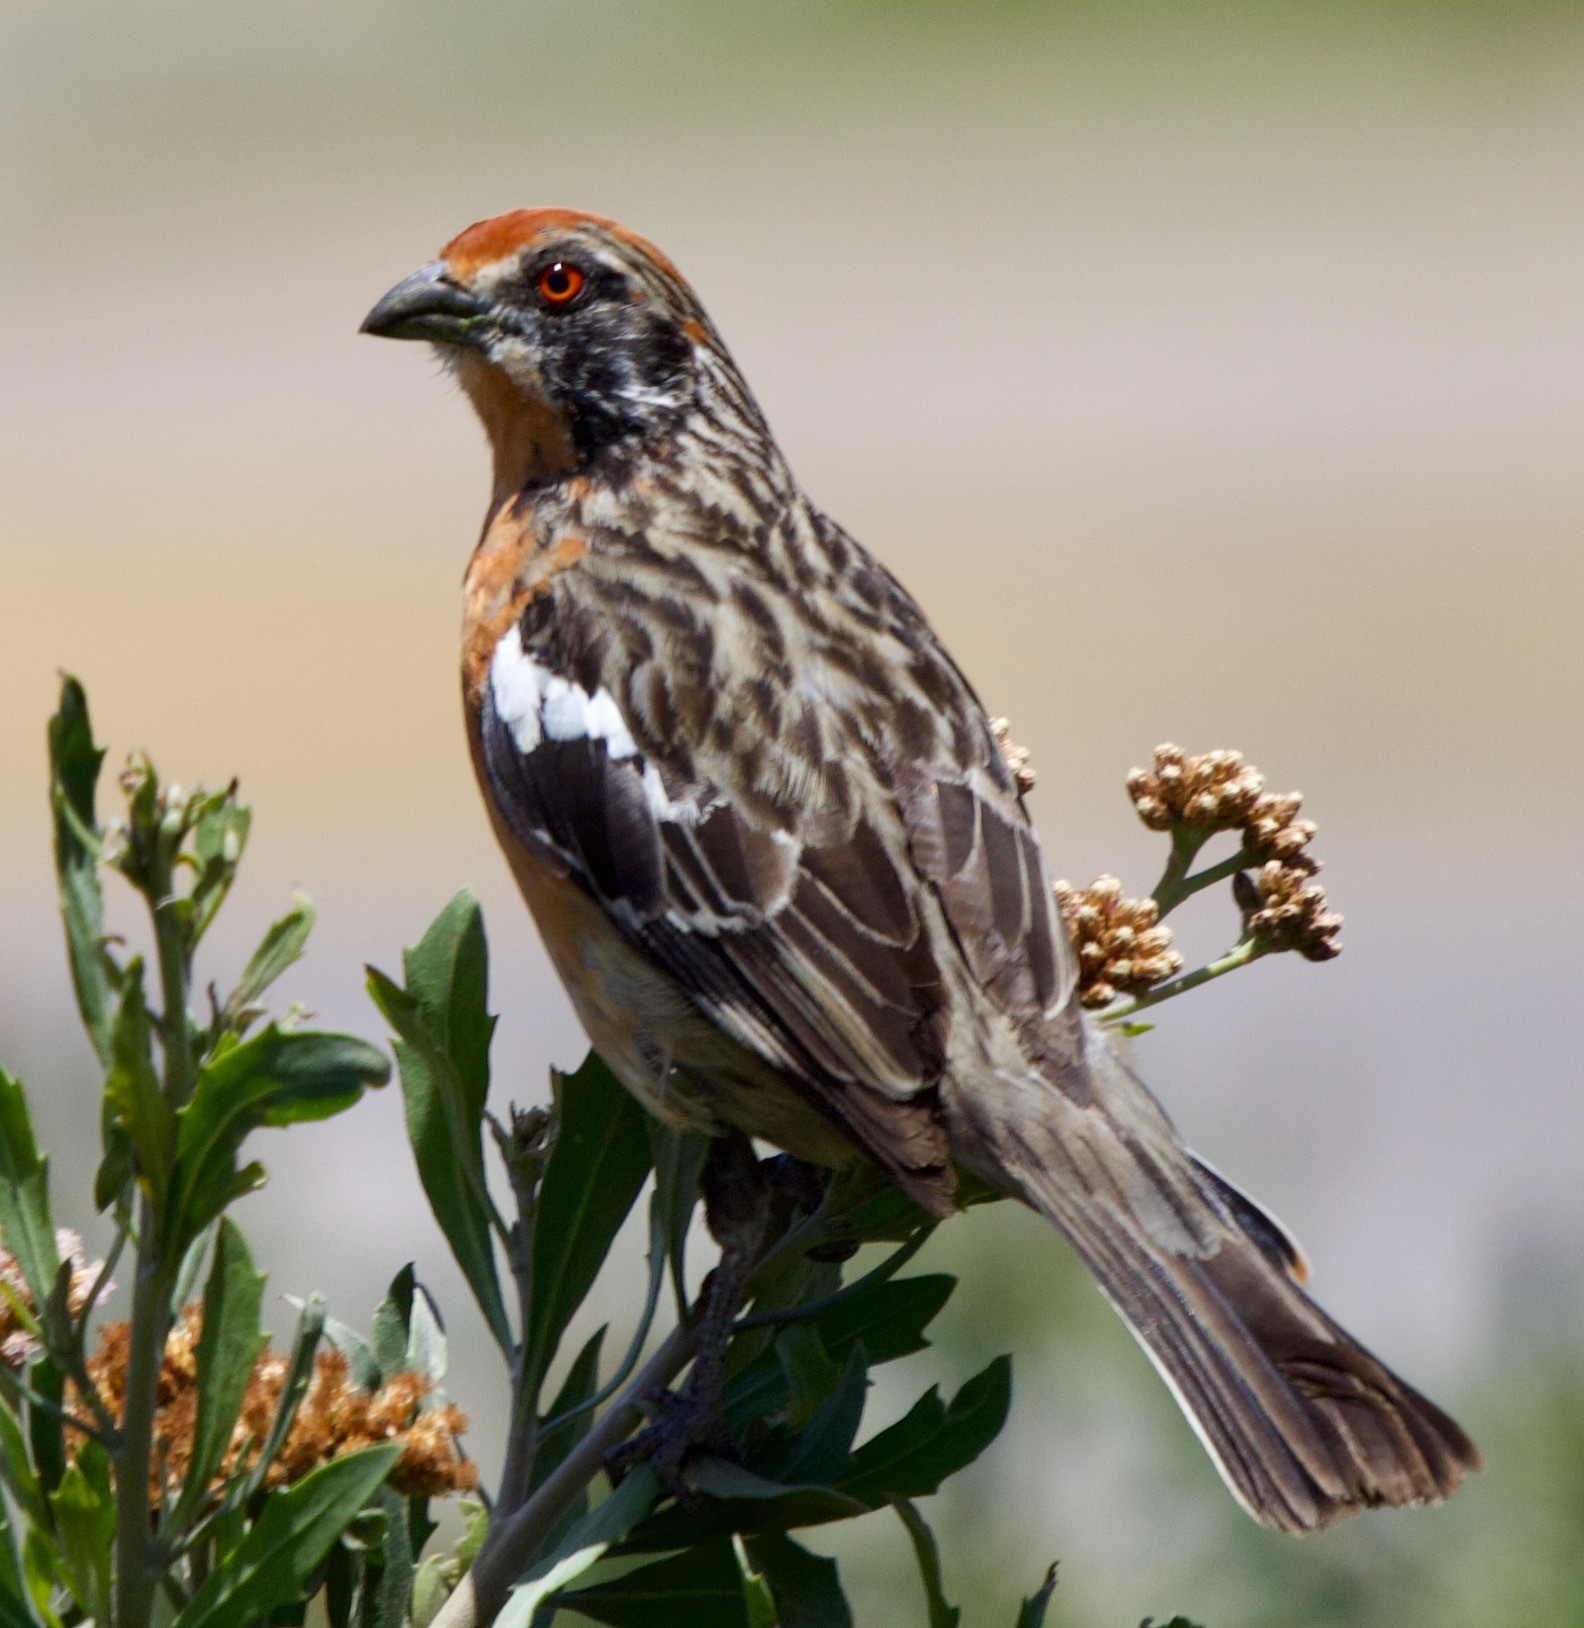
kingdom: Animalia
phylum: Chordata
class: Aves
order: Passeriformes
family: Cotingidae
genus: Phytotoma
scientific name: Phytotoma rara
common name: Rufous-tailed plantcutter
